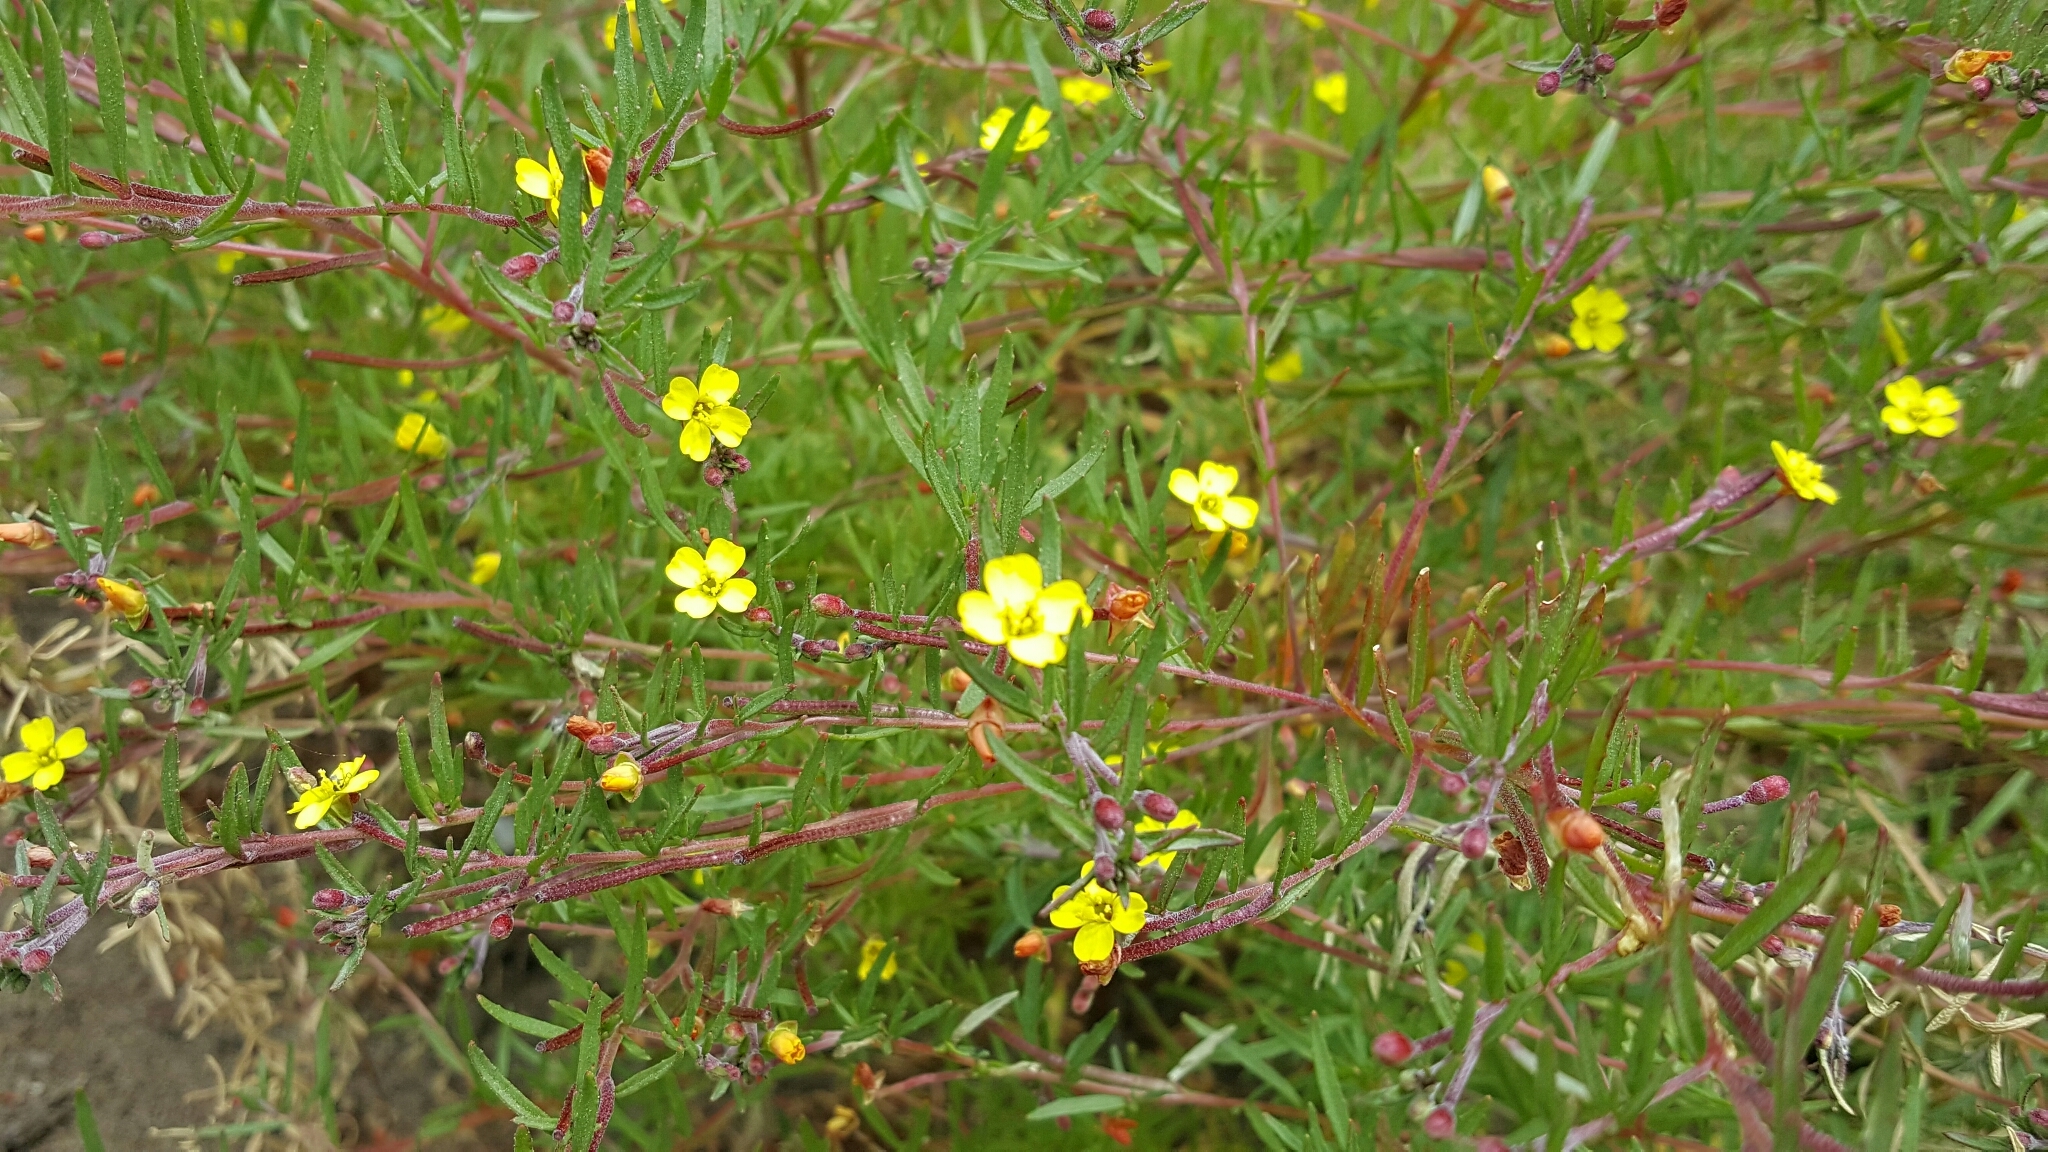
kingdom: Plantae
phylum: Tracheophyta
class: Magnoliopsida
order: Myrtales
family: Onagraceae
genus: Camissonia
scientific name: Camissonia strigulosa
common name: Contorted-primrose
